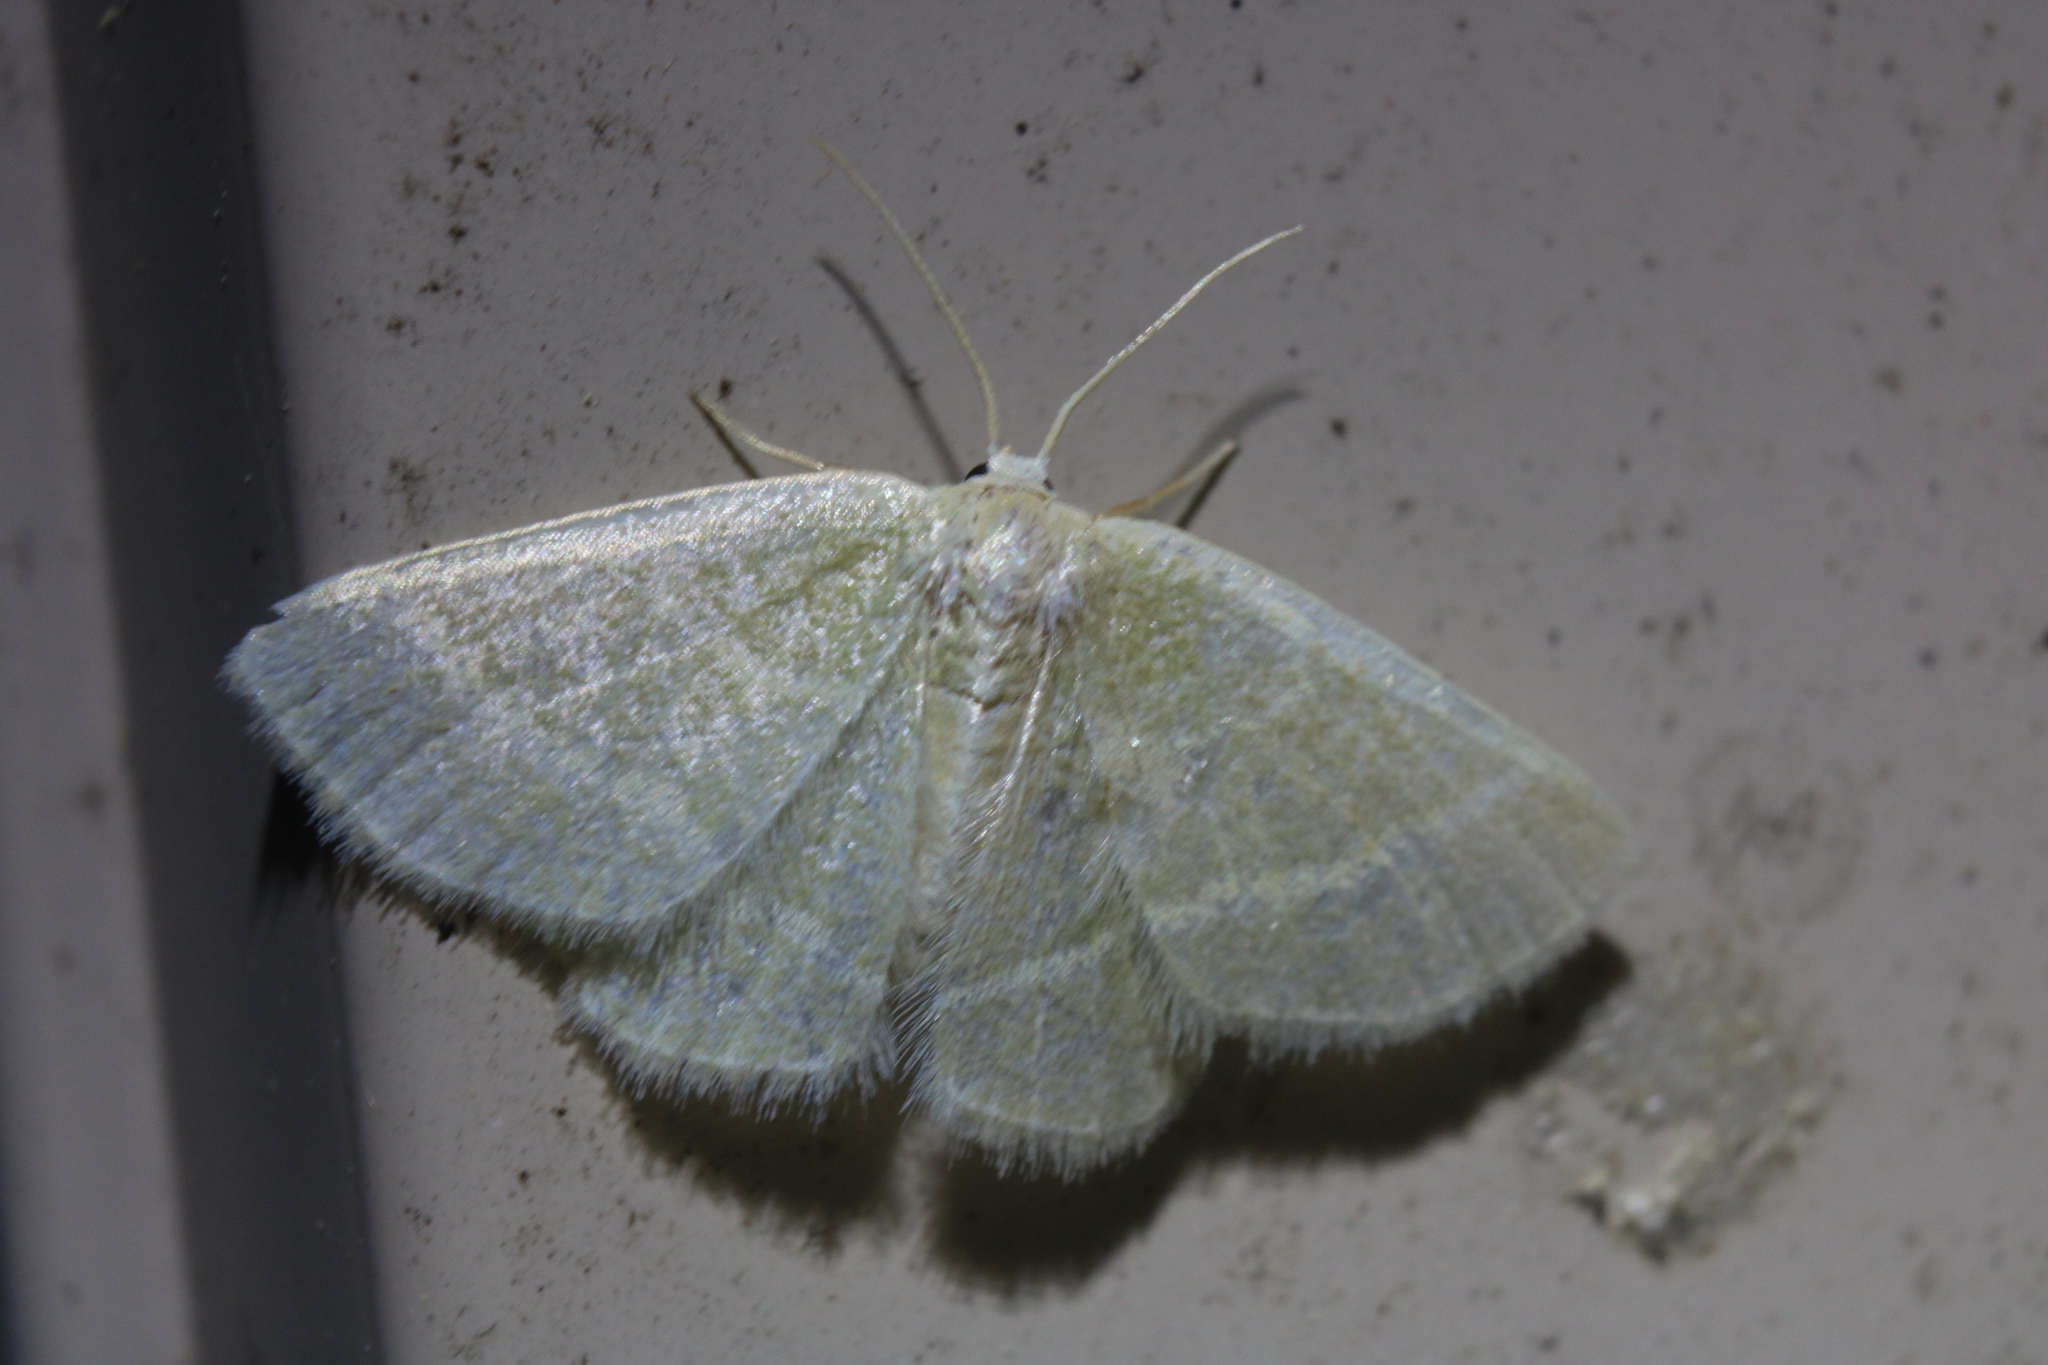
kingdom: Animalia
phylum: Arthropoda
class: Insecta
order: Lepidoptera
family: Geometridae
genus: Chlorochlamys
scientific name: Chlorochlamys chloroleucaria
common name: Blackberry looper
